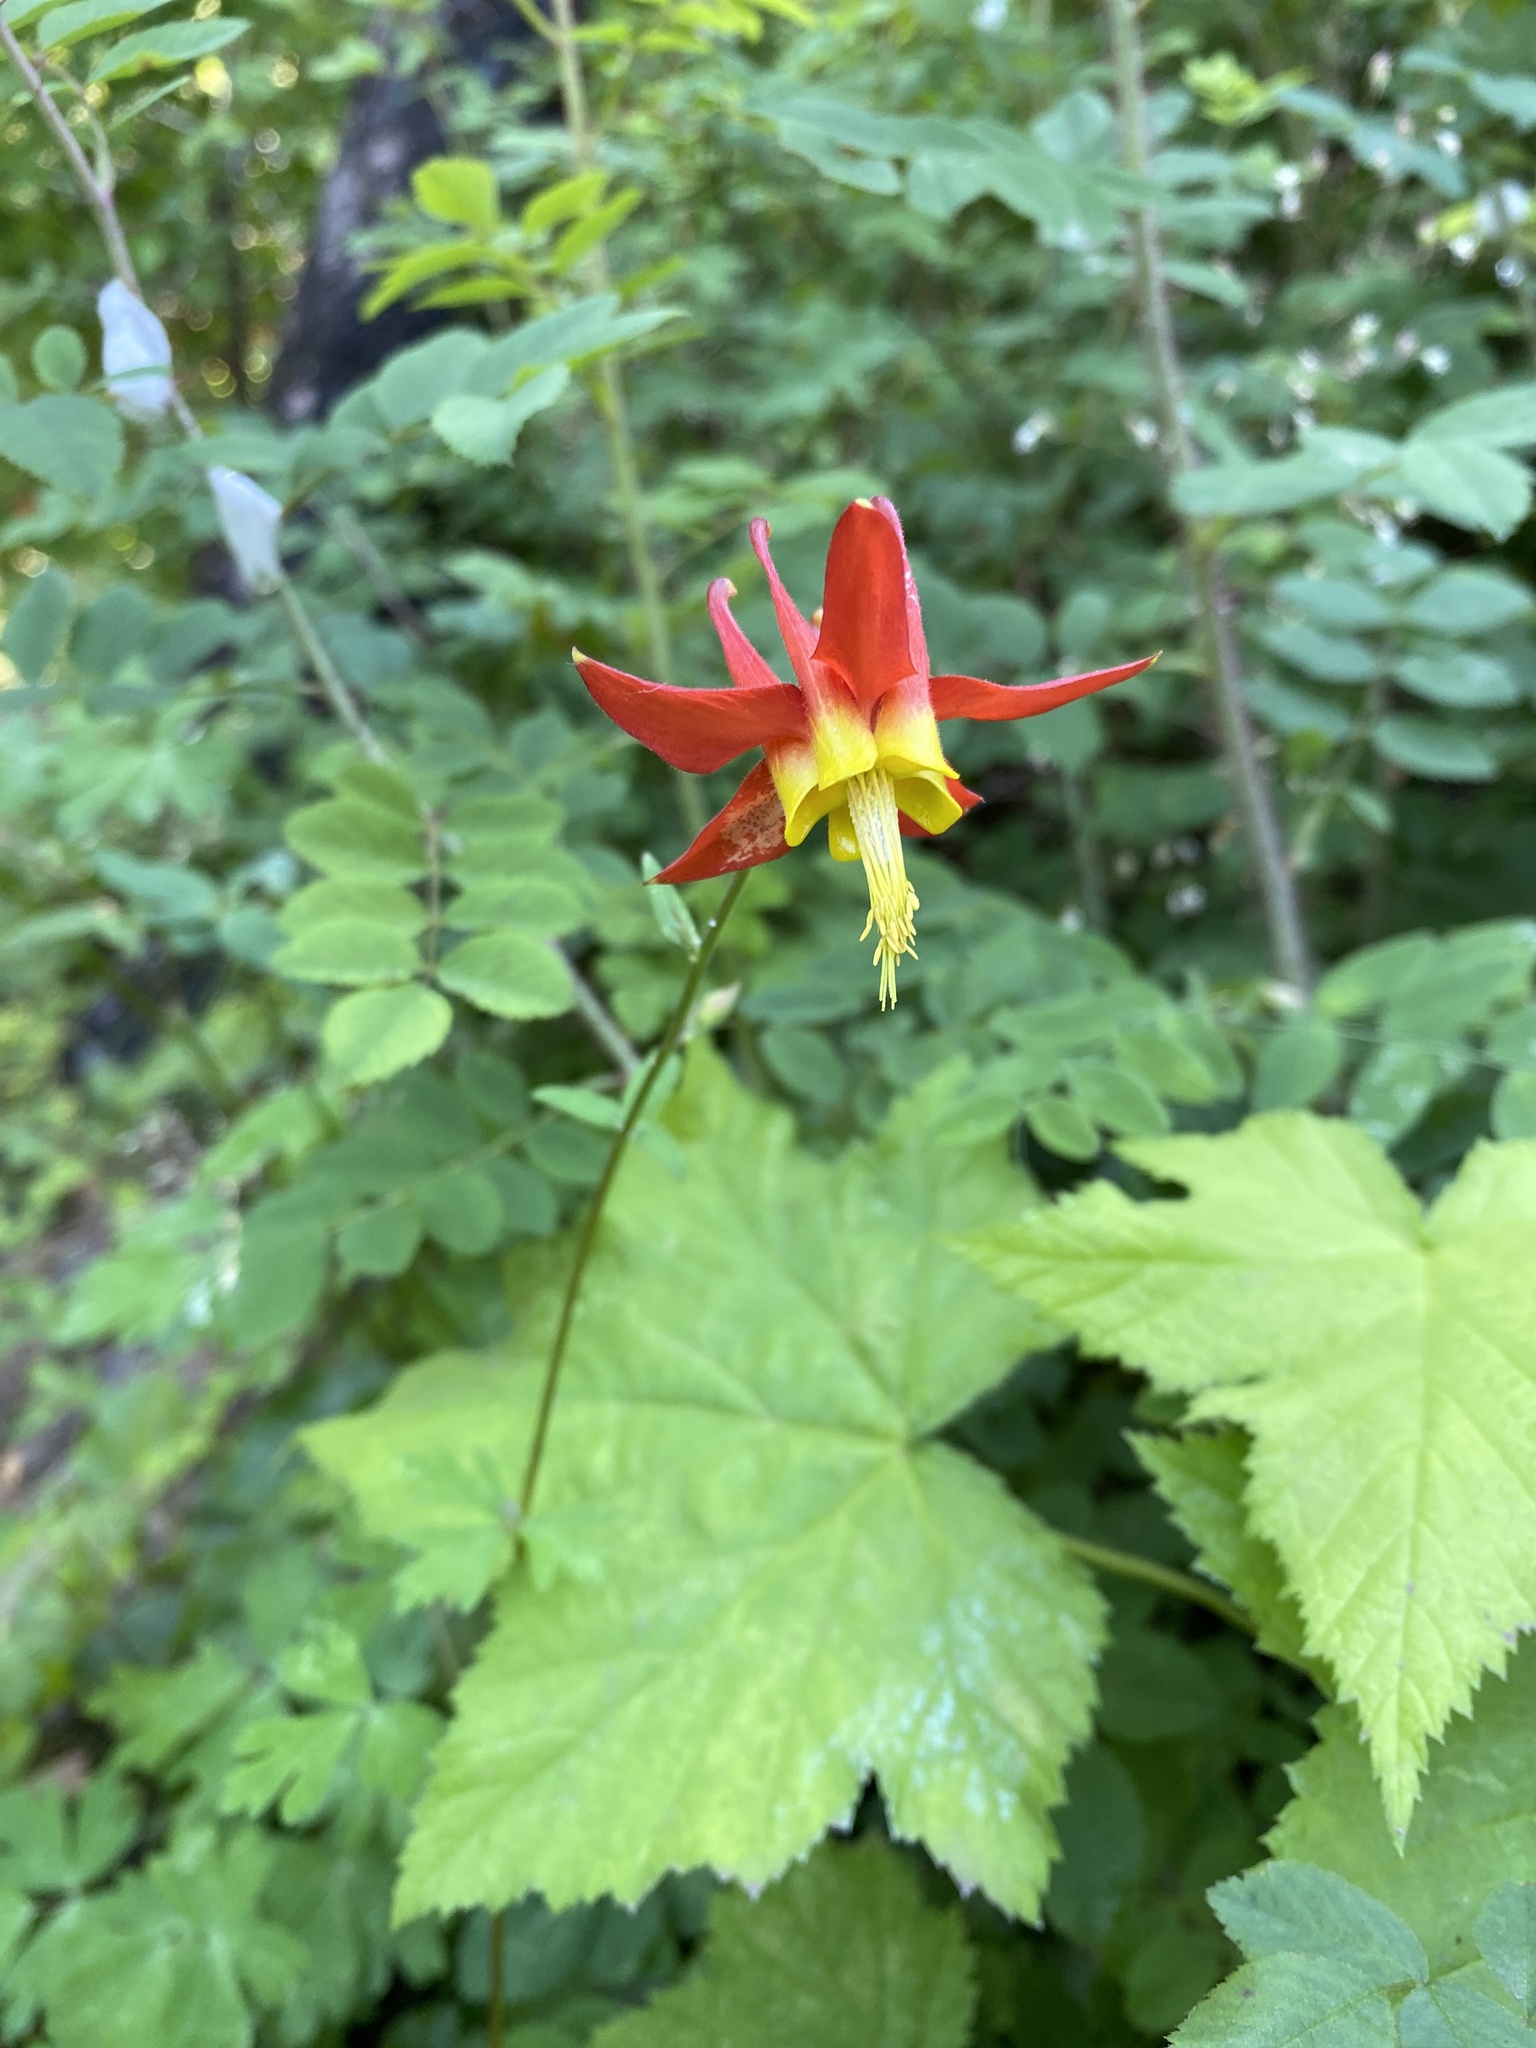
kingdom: Plantae
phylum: Tracheophyta
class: Magnoliopsida
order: Ranunculales
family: Ranunculaceae
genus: Aquilegia
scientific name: Aquilegia formosa
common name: Sitka columbine
